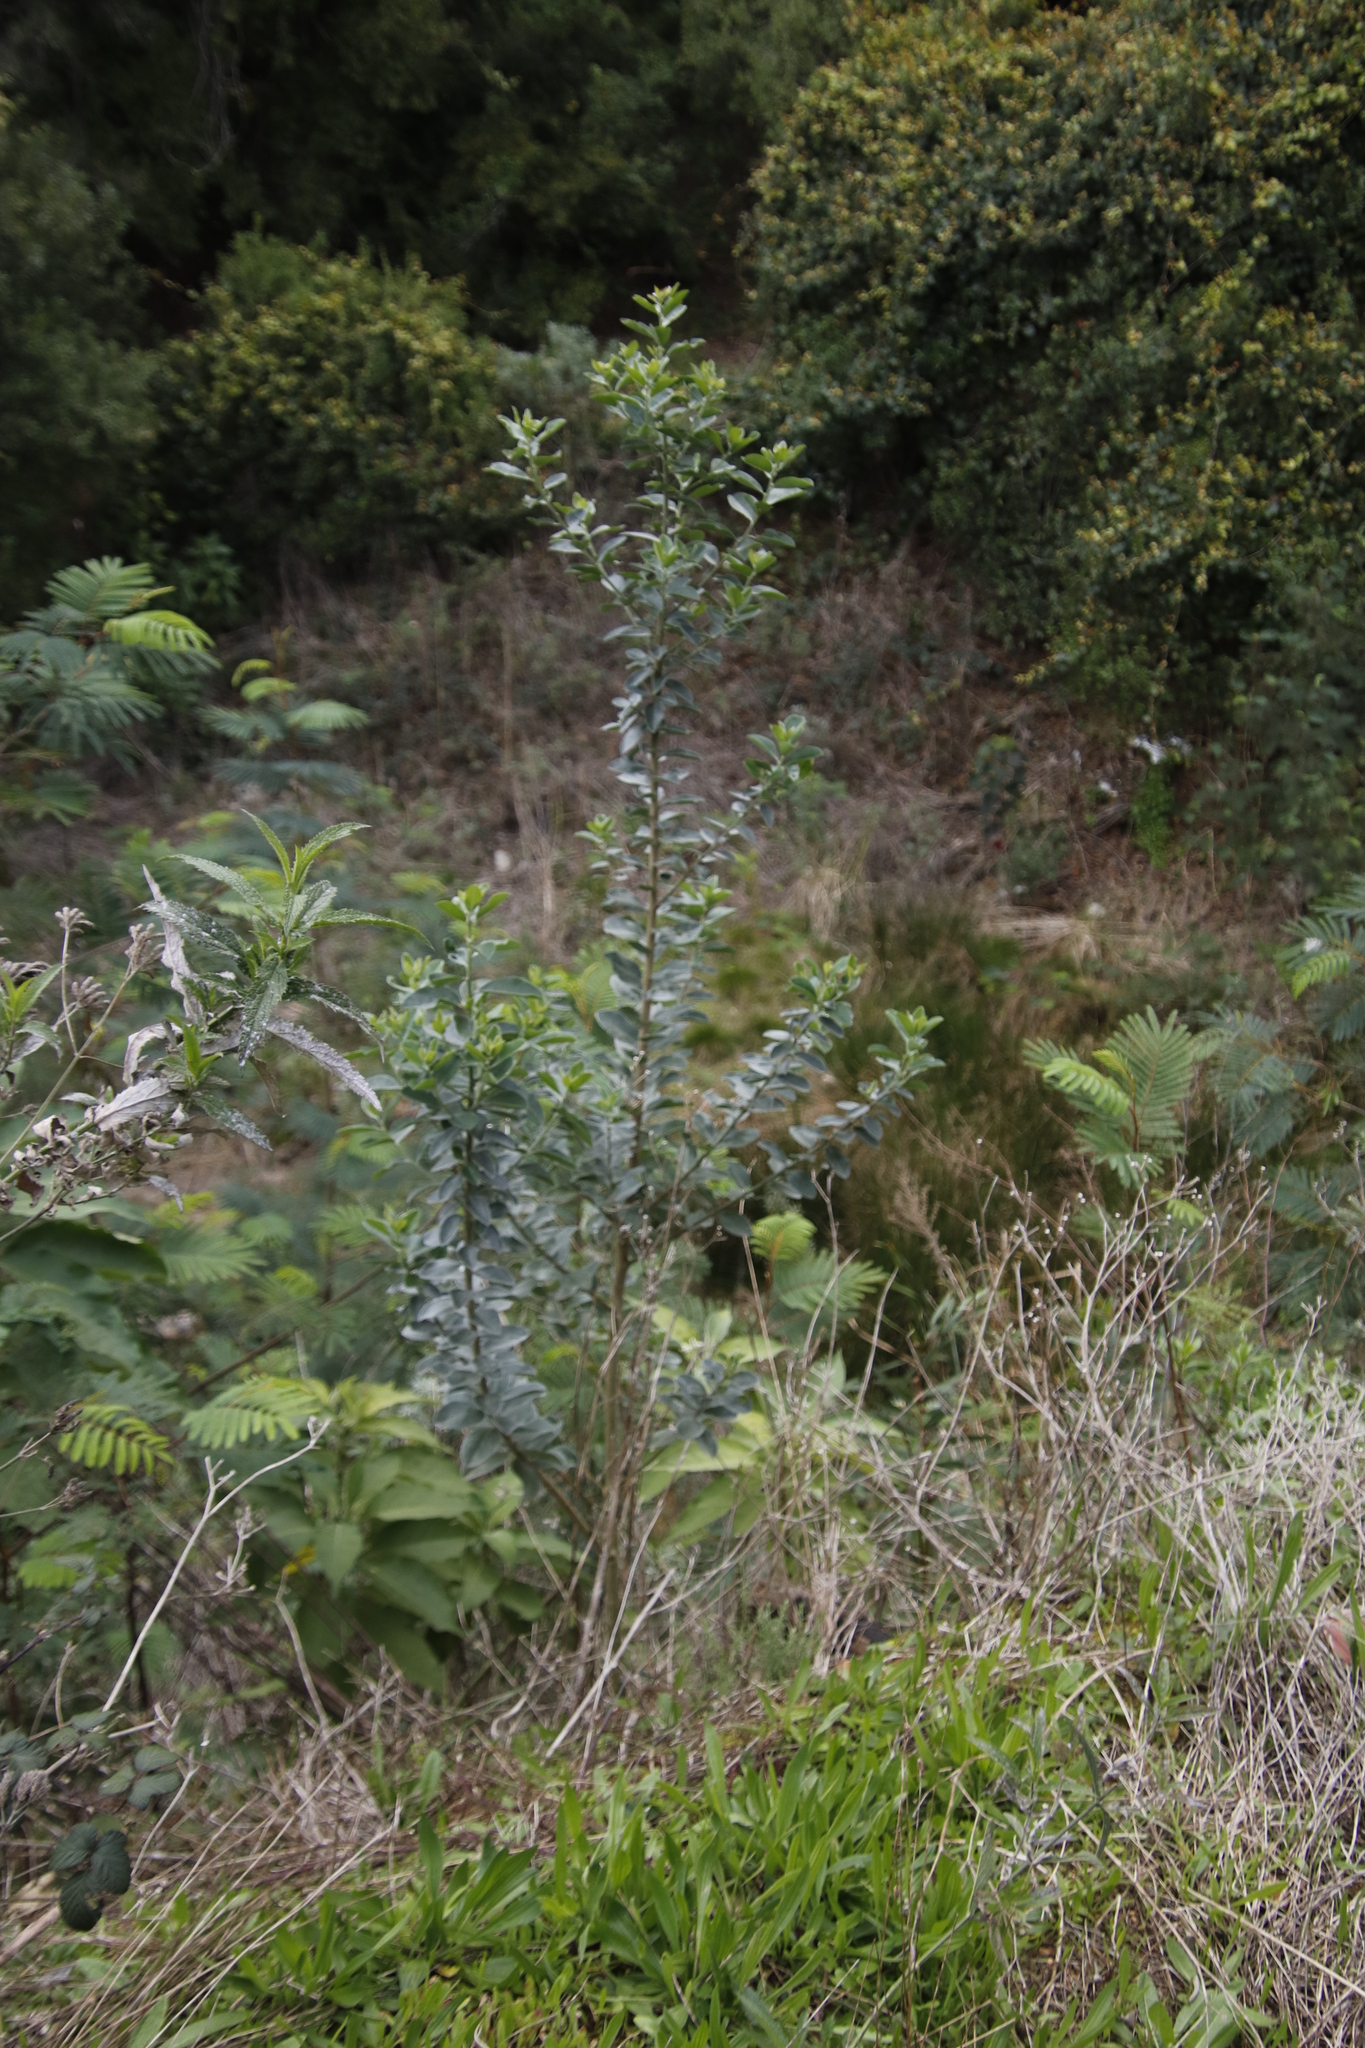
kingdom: Plantae
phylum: Tracheophyta
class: Magnoliopsida
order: Fabales
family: Fabaceae
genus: Podalyria
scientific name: Podalyria calyptrata
